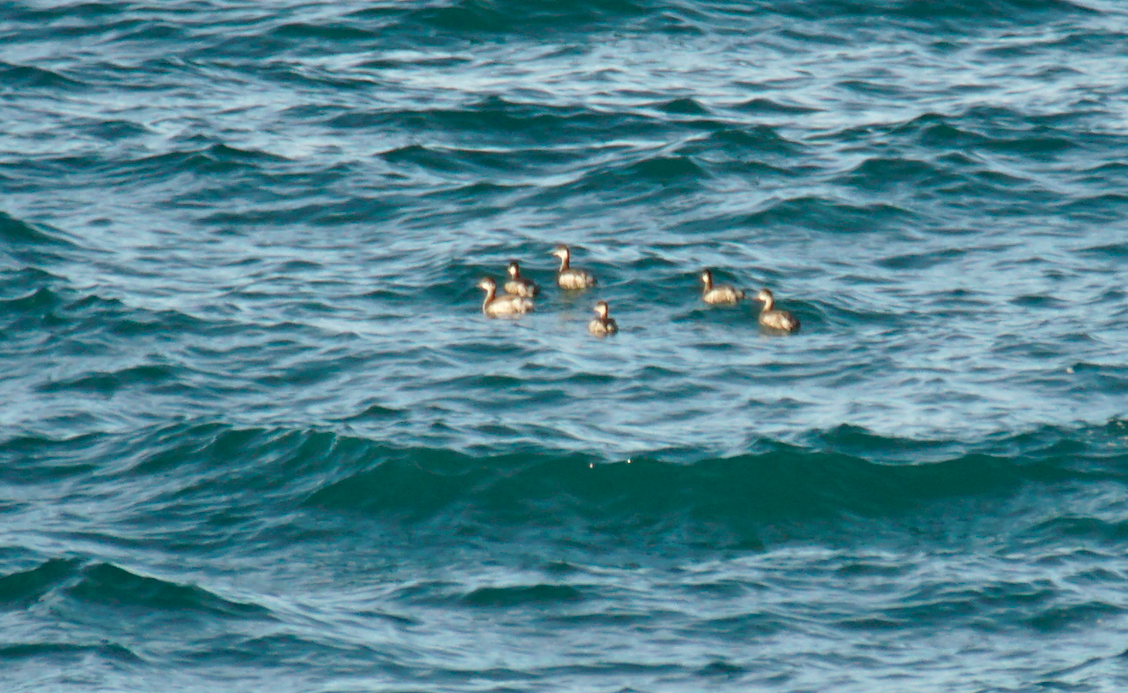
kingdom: Animalia
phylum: Chordata
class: Aves
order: Podicipediformes
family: Podicipedidae
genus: Podiceps
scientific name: Podiceps nigricollis
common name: Black-necked grebe
